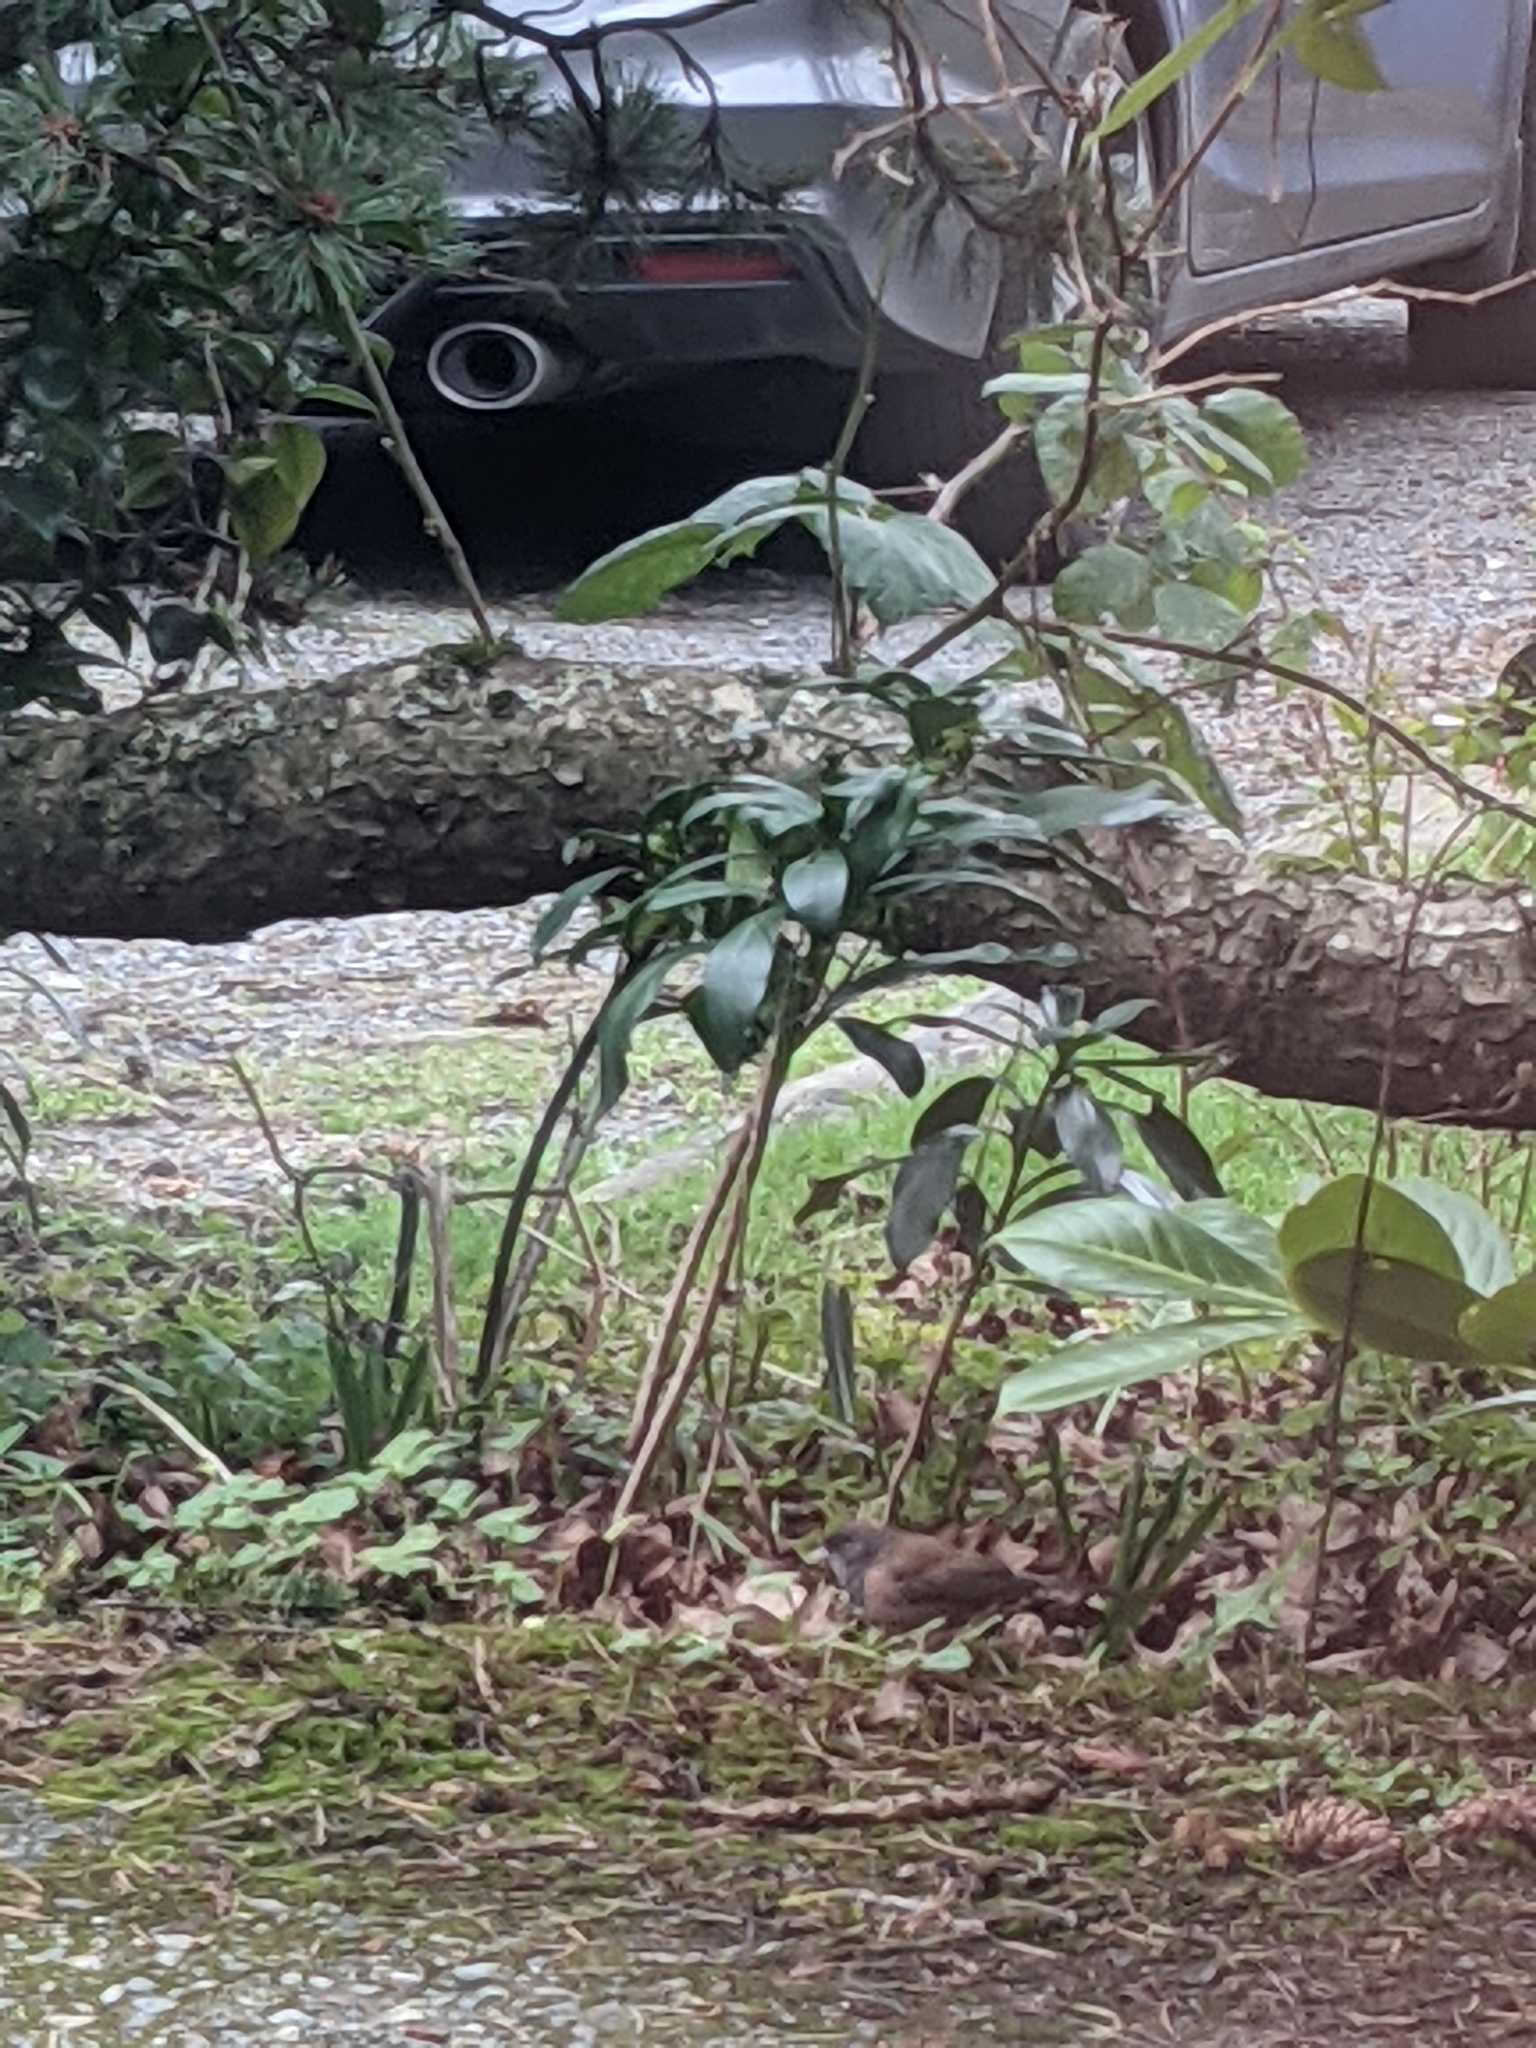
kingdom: Animalia
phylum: Chordata
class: Aves
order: Passeriformes
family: Passerellidae
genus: Junco
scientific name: Junco hyemalis
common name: Dark-eyed junco
